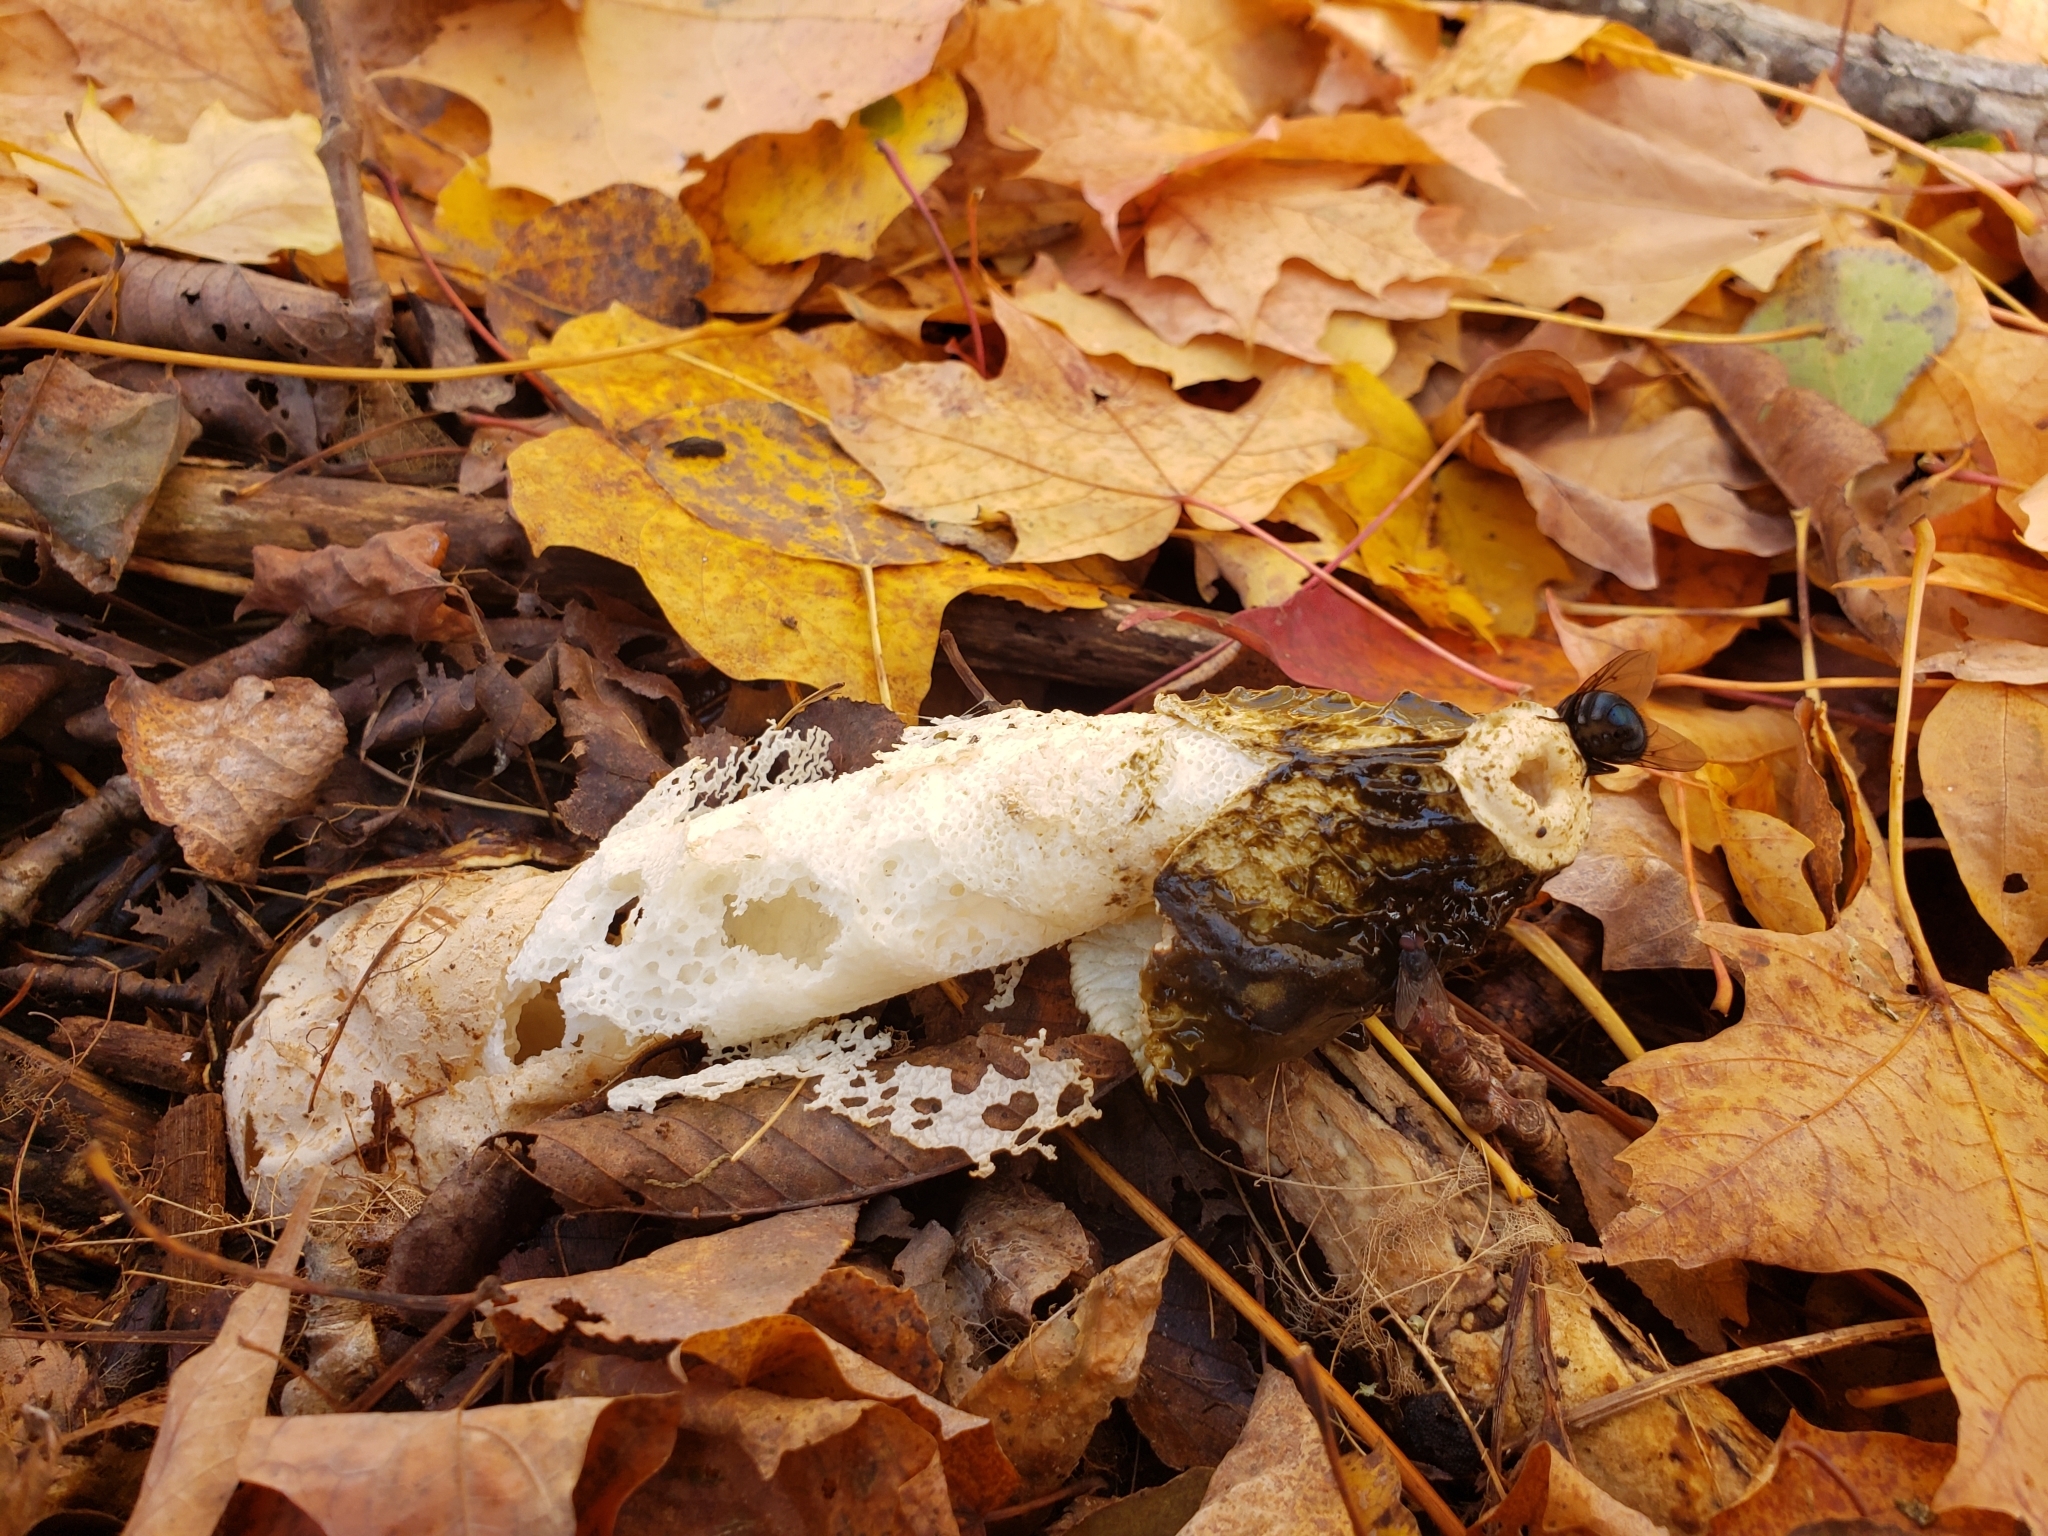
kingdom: Fungi
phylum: Basidiomycota
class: Agaricomycetes
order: Phallales
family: Phallaceae
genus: Phallus
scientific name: Phallus indusiatus
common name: Bridal veil stinkhorn
